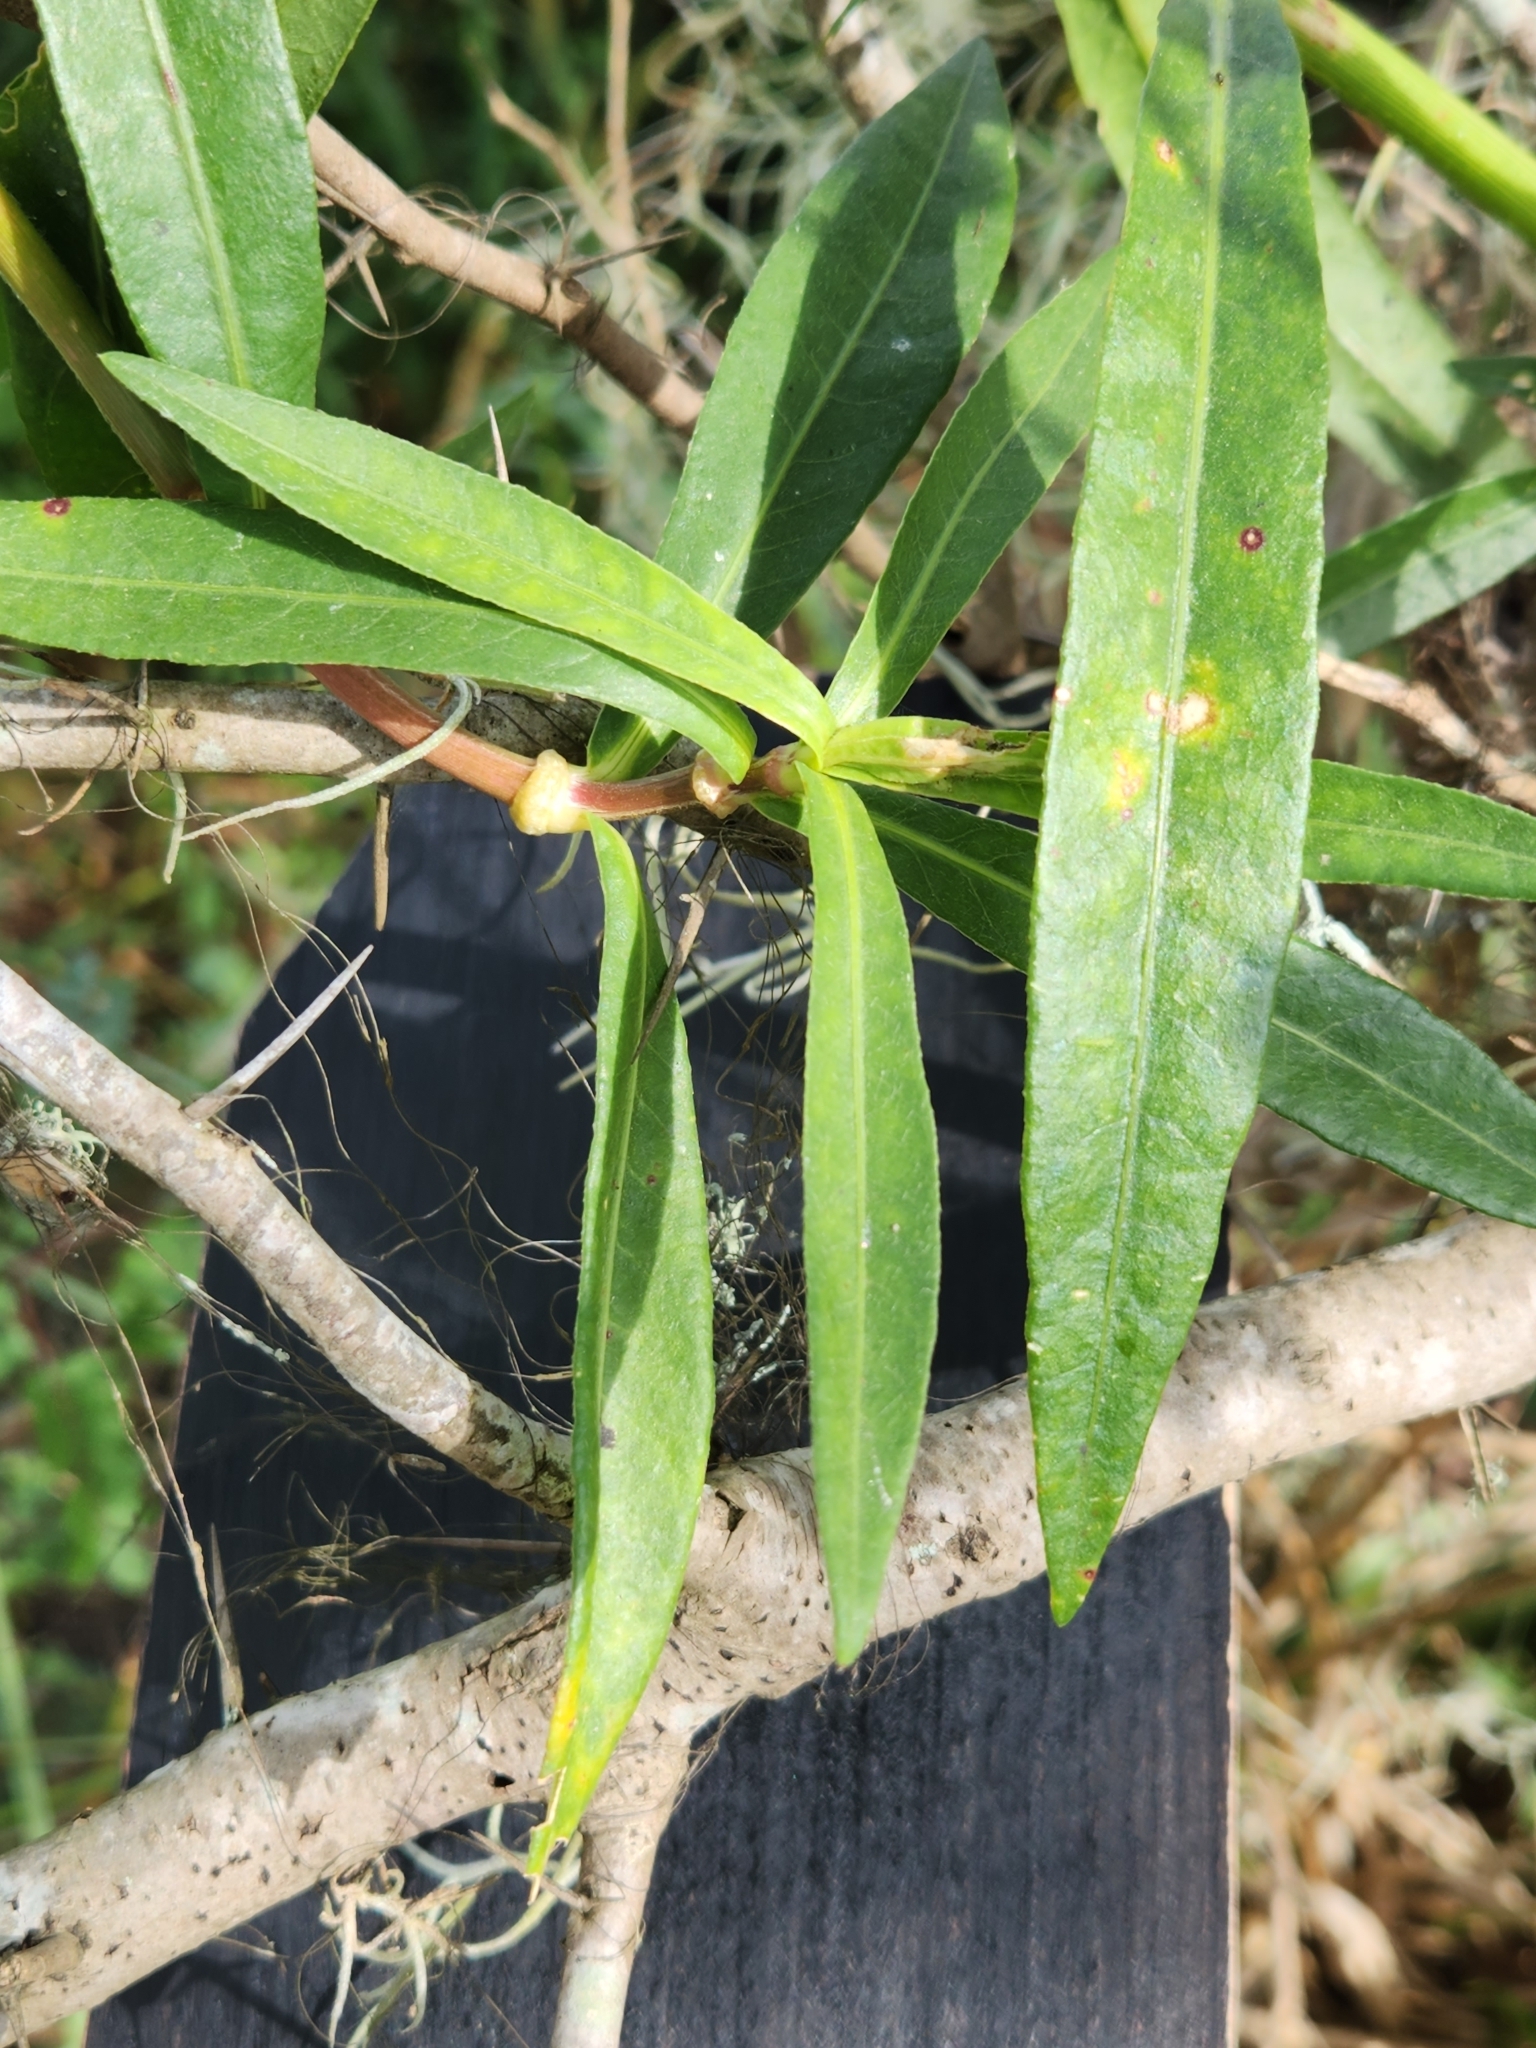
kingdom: Plantae
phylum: Tracheophyta
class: Magnoliopsida
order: Caryophyllales
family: Amaranthaceae
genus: Alternanthera
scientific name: Alternanthera philoxeroides
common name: Alligatorweed
